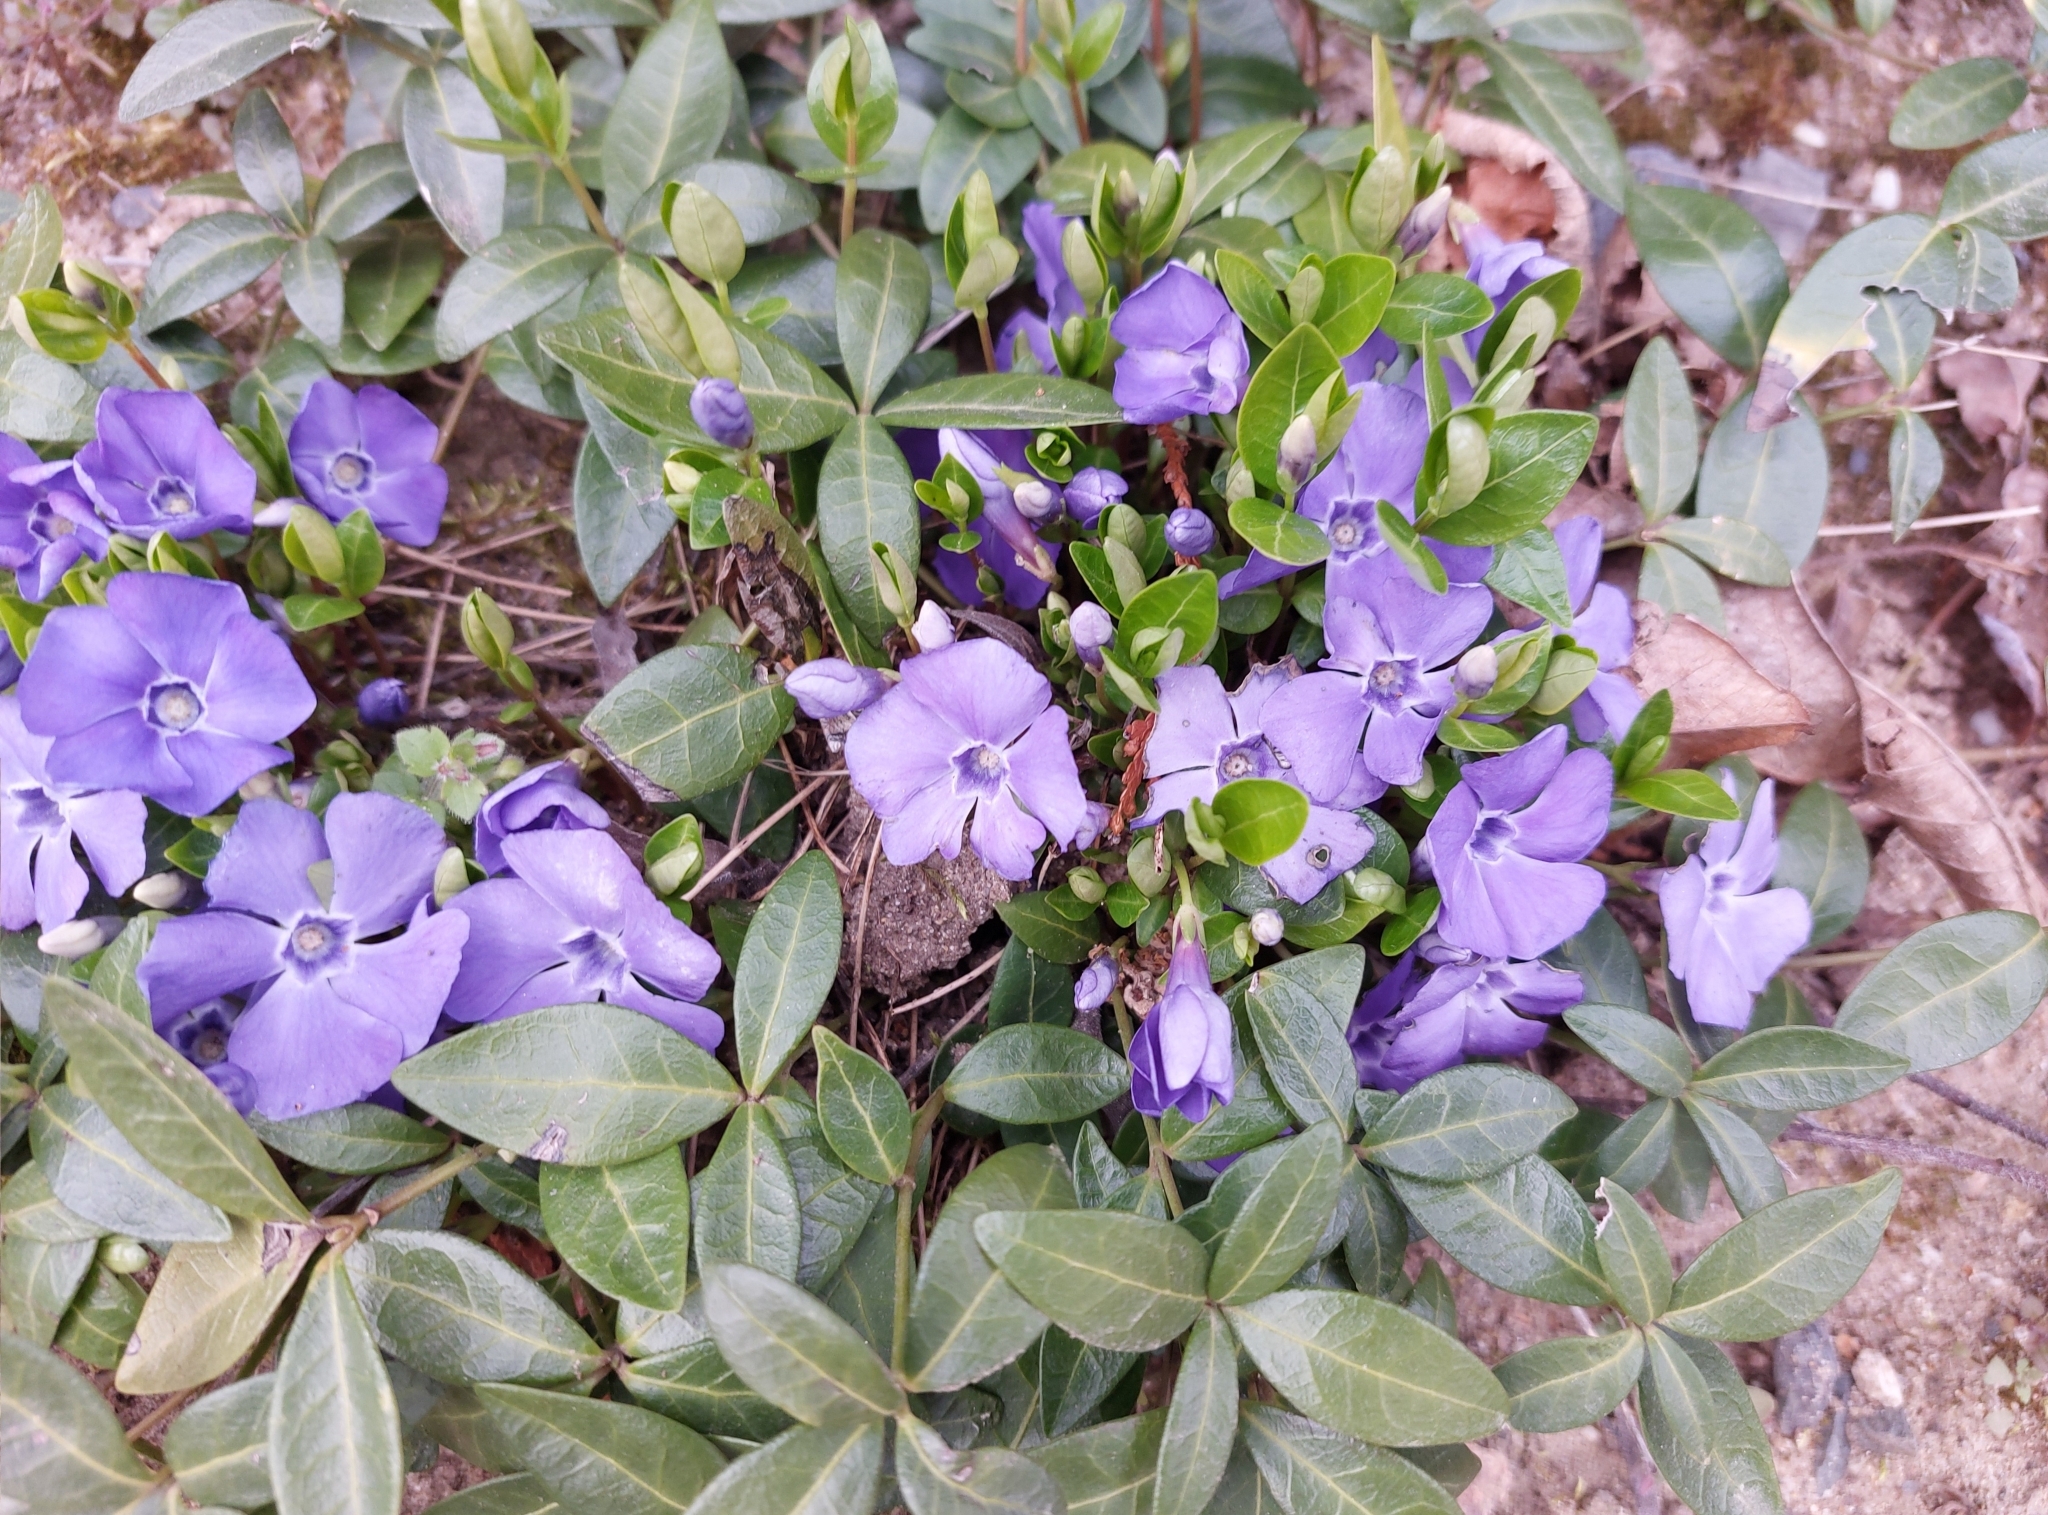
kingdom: Plantae
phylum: Tracheophyta
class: Magnoliopsida
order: Gentianales
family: Apocynaceae
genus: Vinca
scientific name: Vinca minor
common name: Lesser periwinkle
